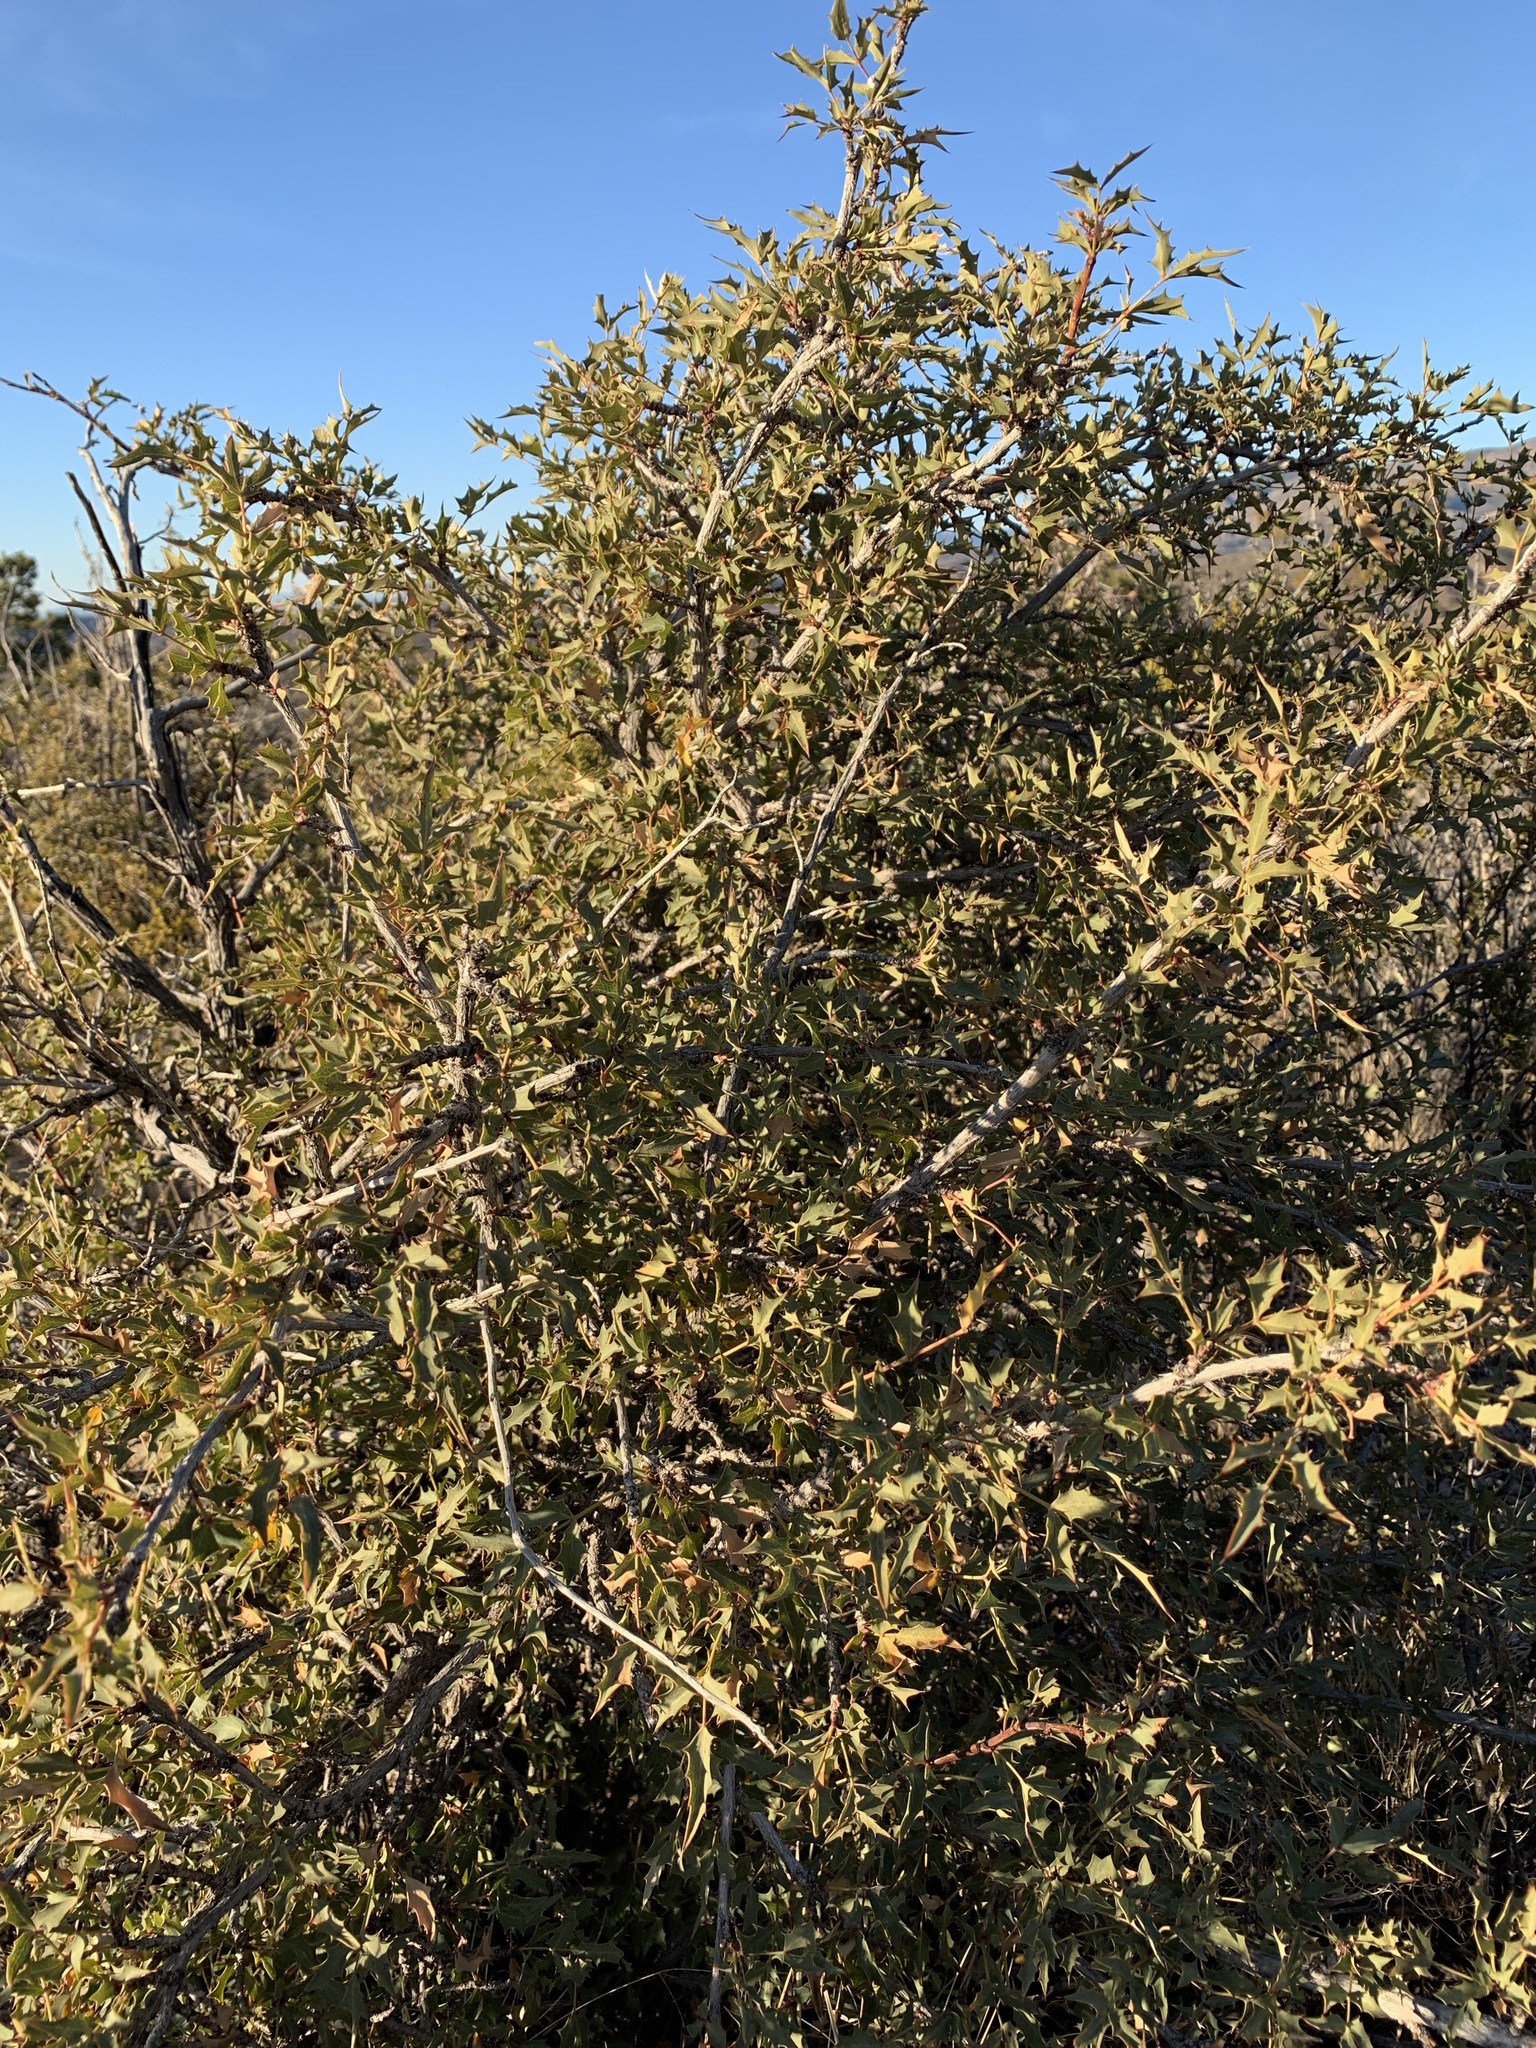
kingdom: Plantae
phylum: Tracheophyta
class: Magnoliopsida
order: Ranunculales
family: Berberidaceae
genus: Alloberberis
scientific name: Alloberberis haematocarpa
